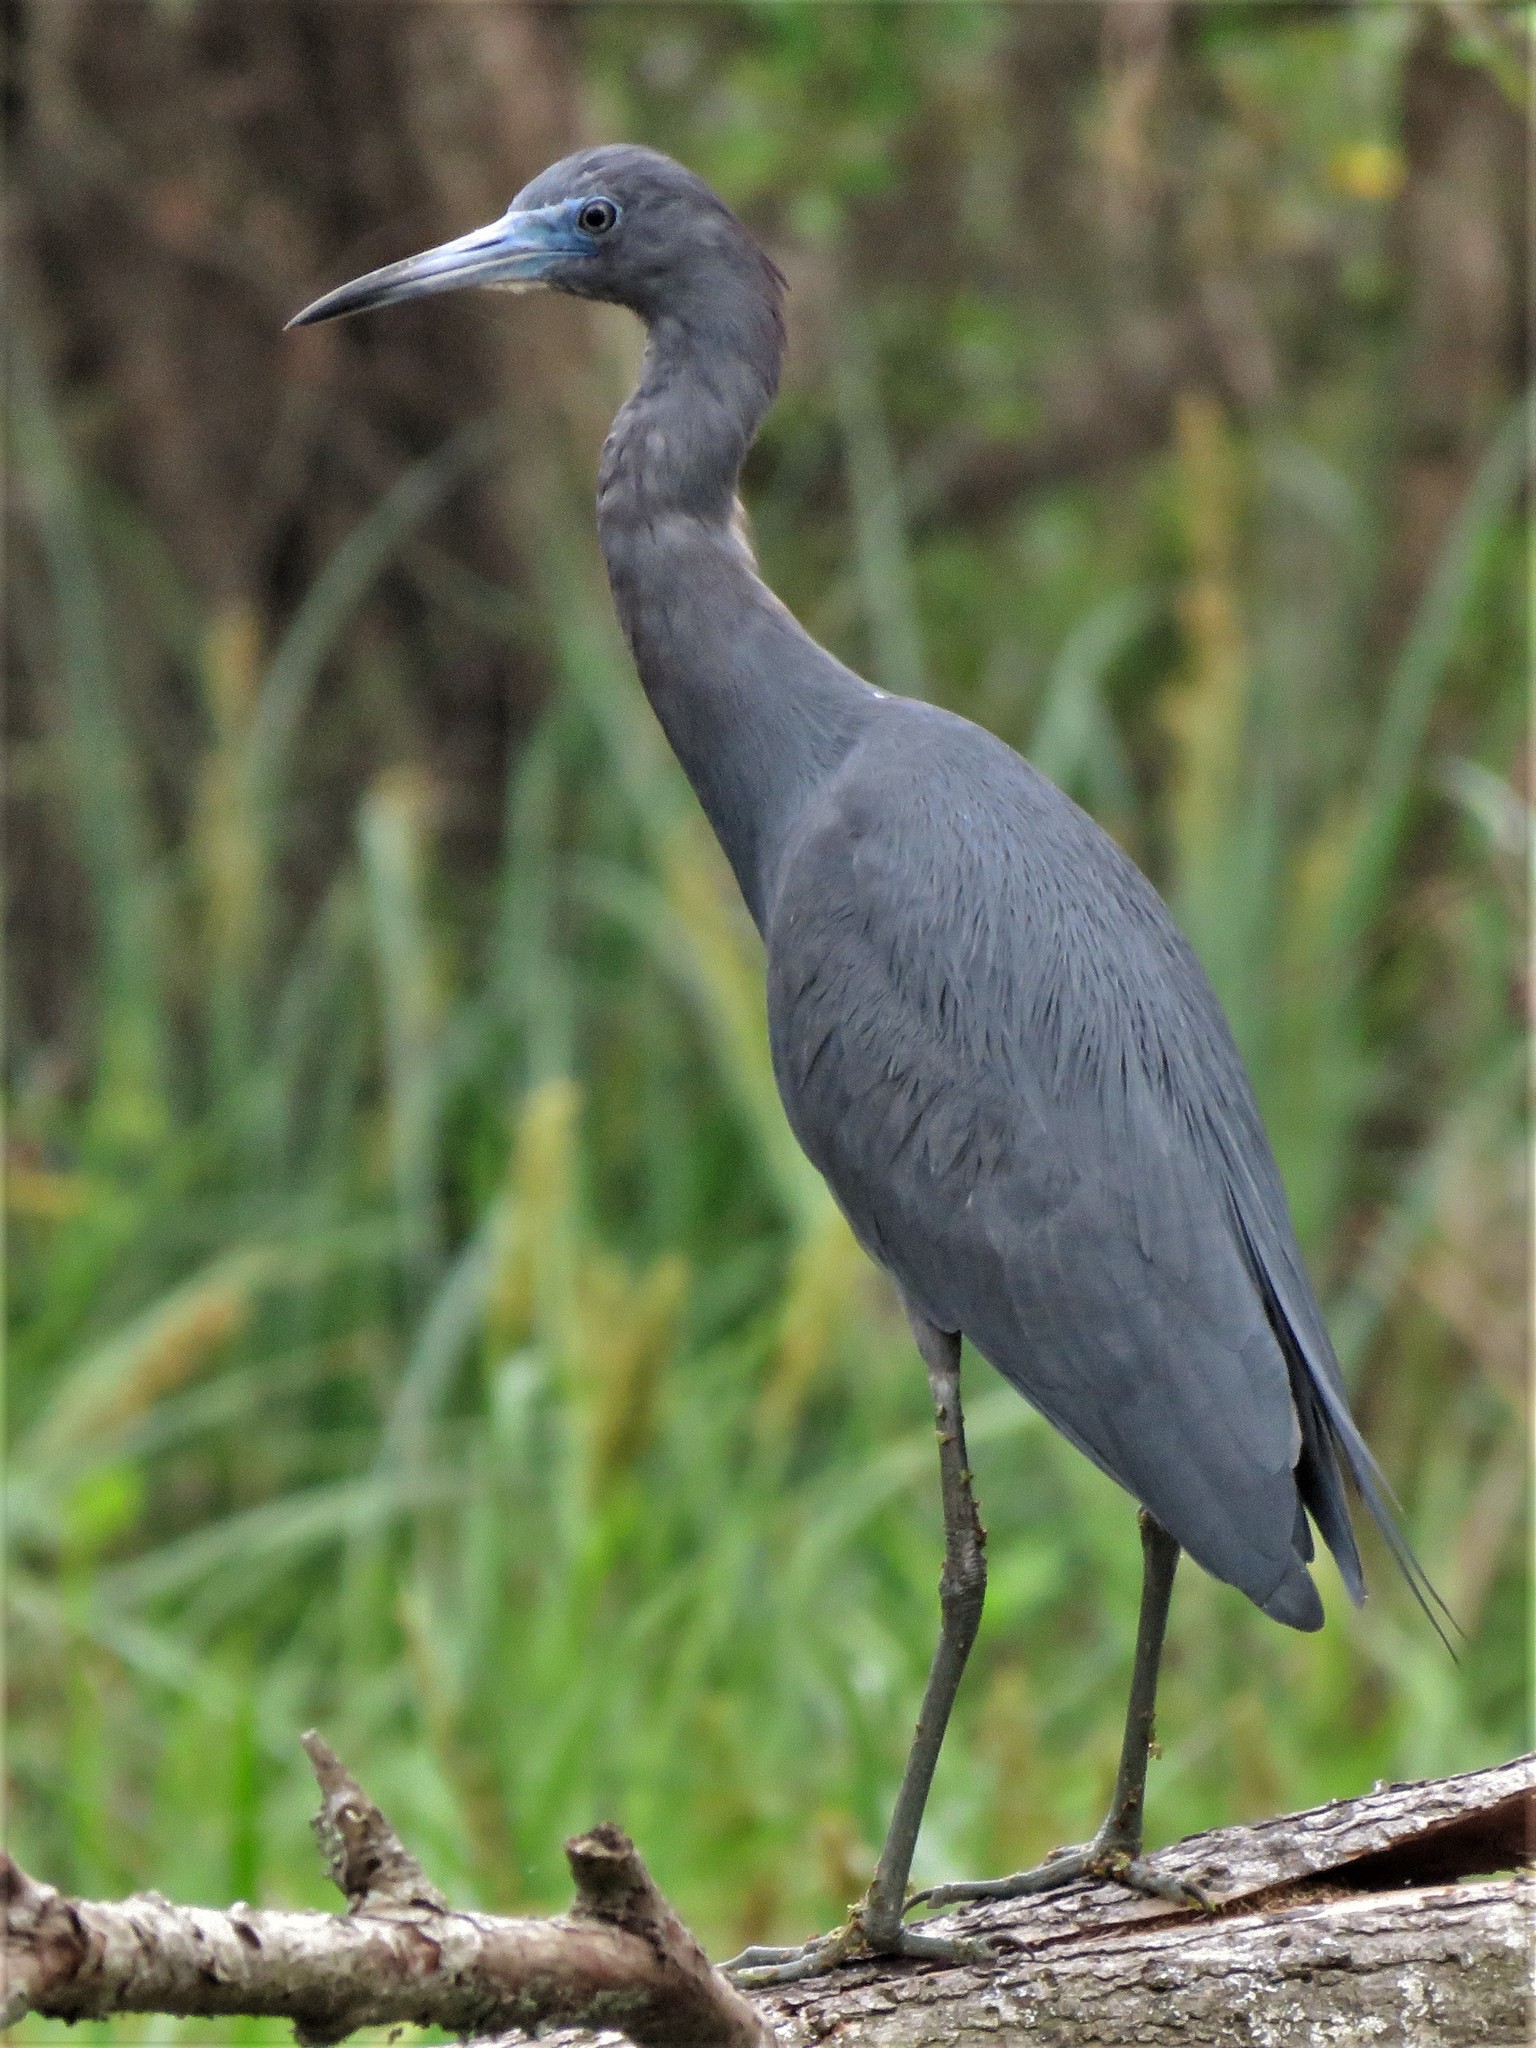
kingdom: Animalia
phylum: Chordata
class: Aves
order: Pelecaniformes
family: Ardeidae
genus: Egretta
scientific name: Egretta caerulea
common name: Little blue heron
